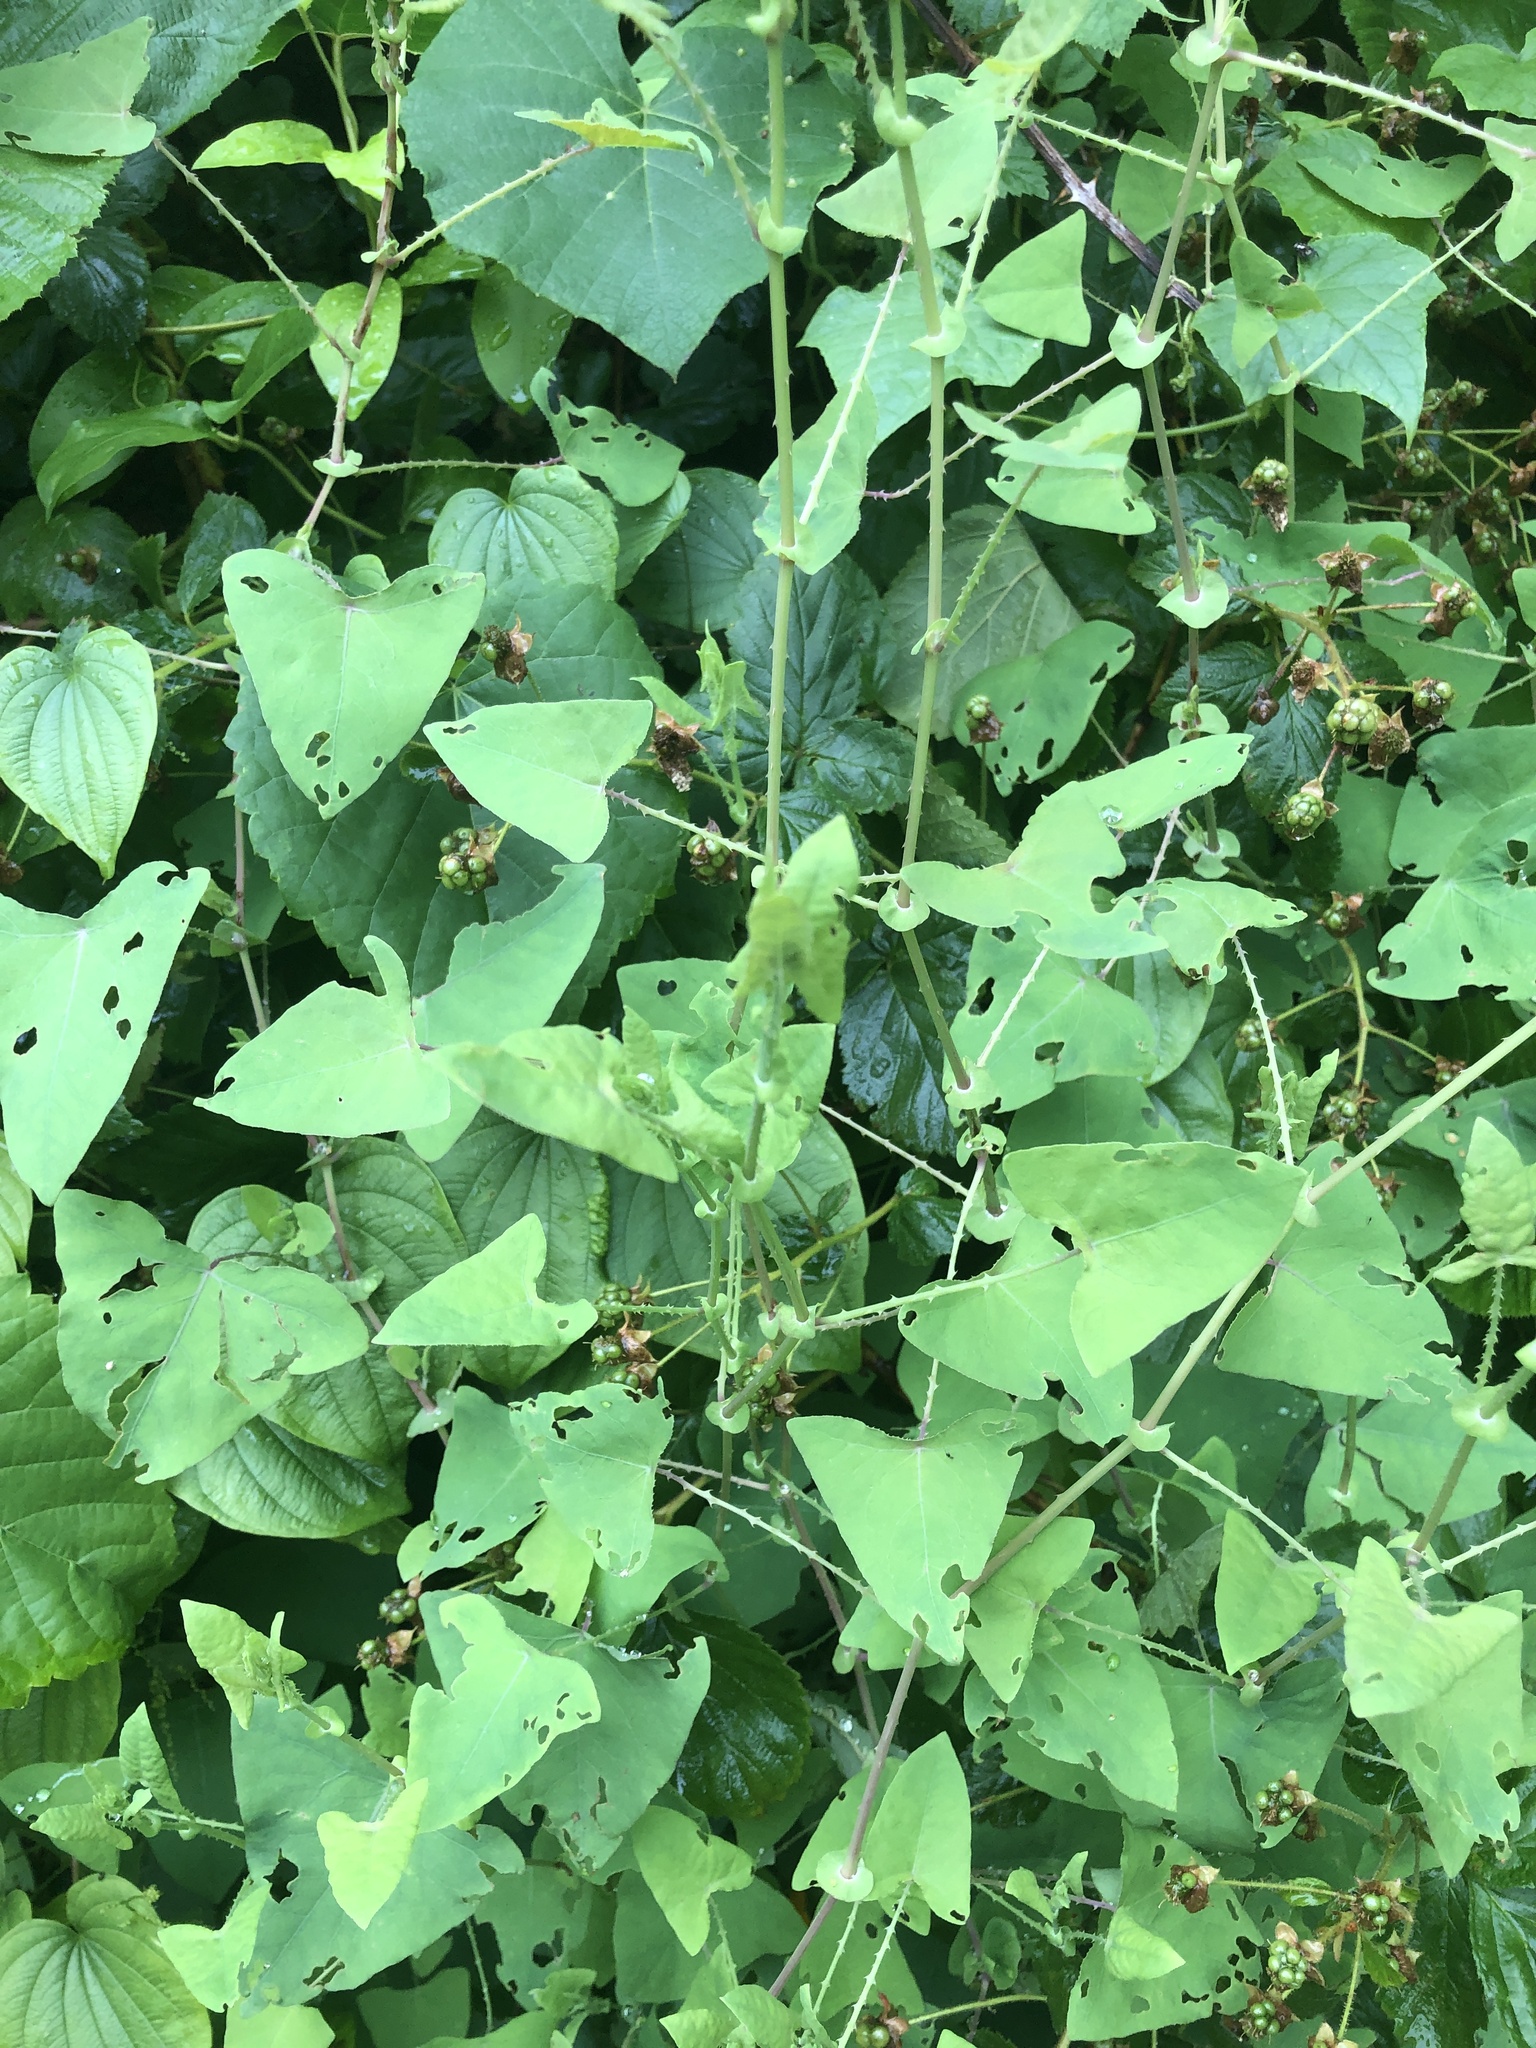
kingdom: Plantae
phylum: Tracheophyta
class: Magnoliopsida
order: Caryophyllales
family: Polygonaceae
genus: Persicaria
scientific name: Persicaria perfoliata
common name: Asiatic tearthumb
